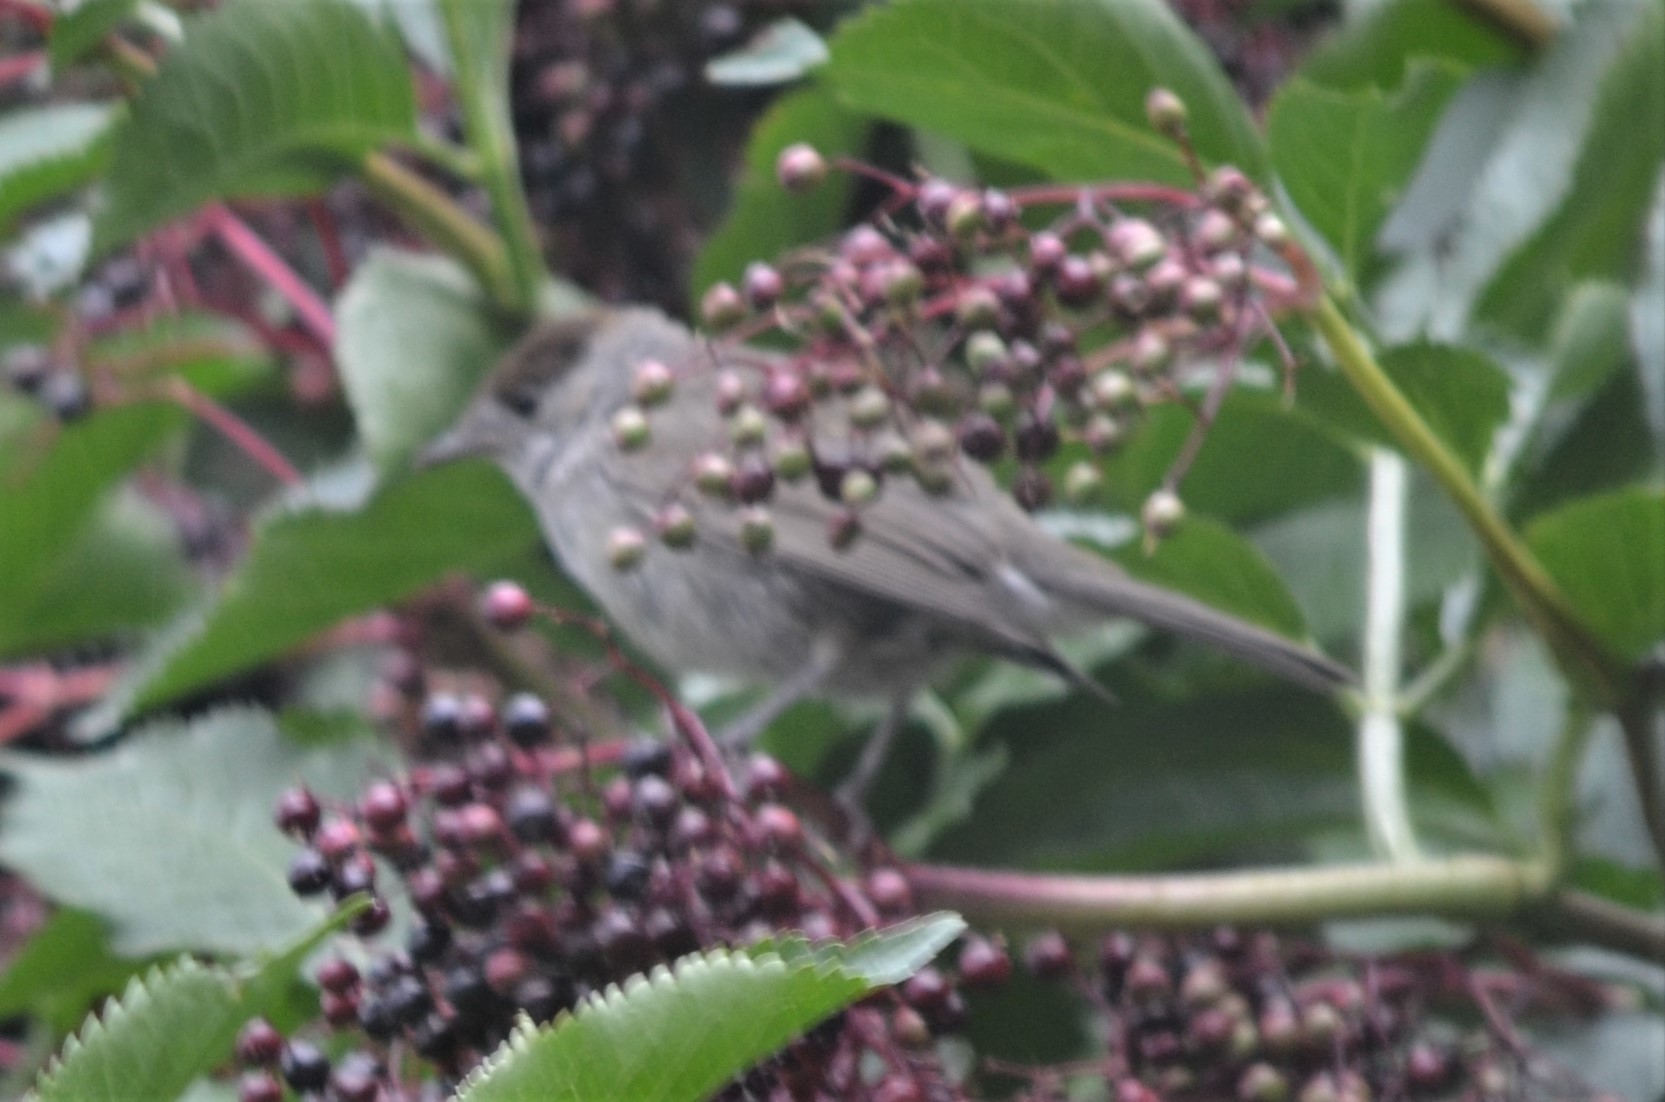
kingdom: Animalia
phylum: Chordata
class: Aves
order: Passeriformes
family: Sylviidae
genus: Sylvia
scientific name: Sylvia atricapilla
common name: Eurasian blackcap
